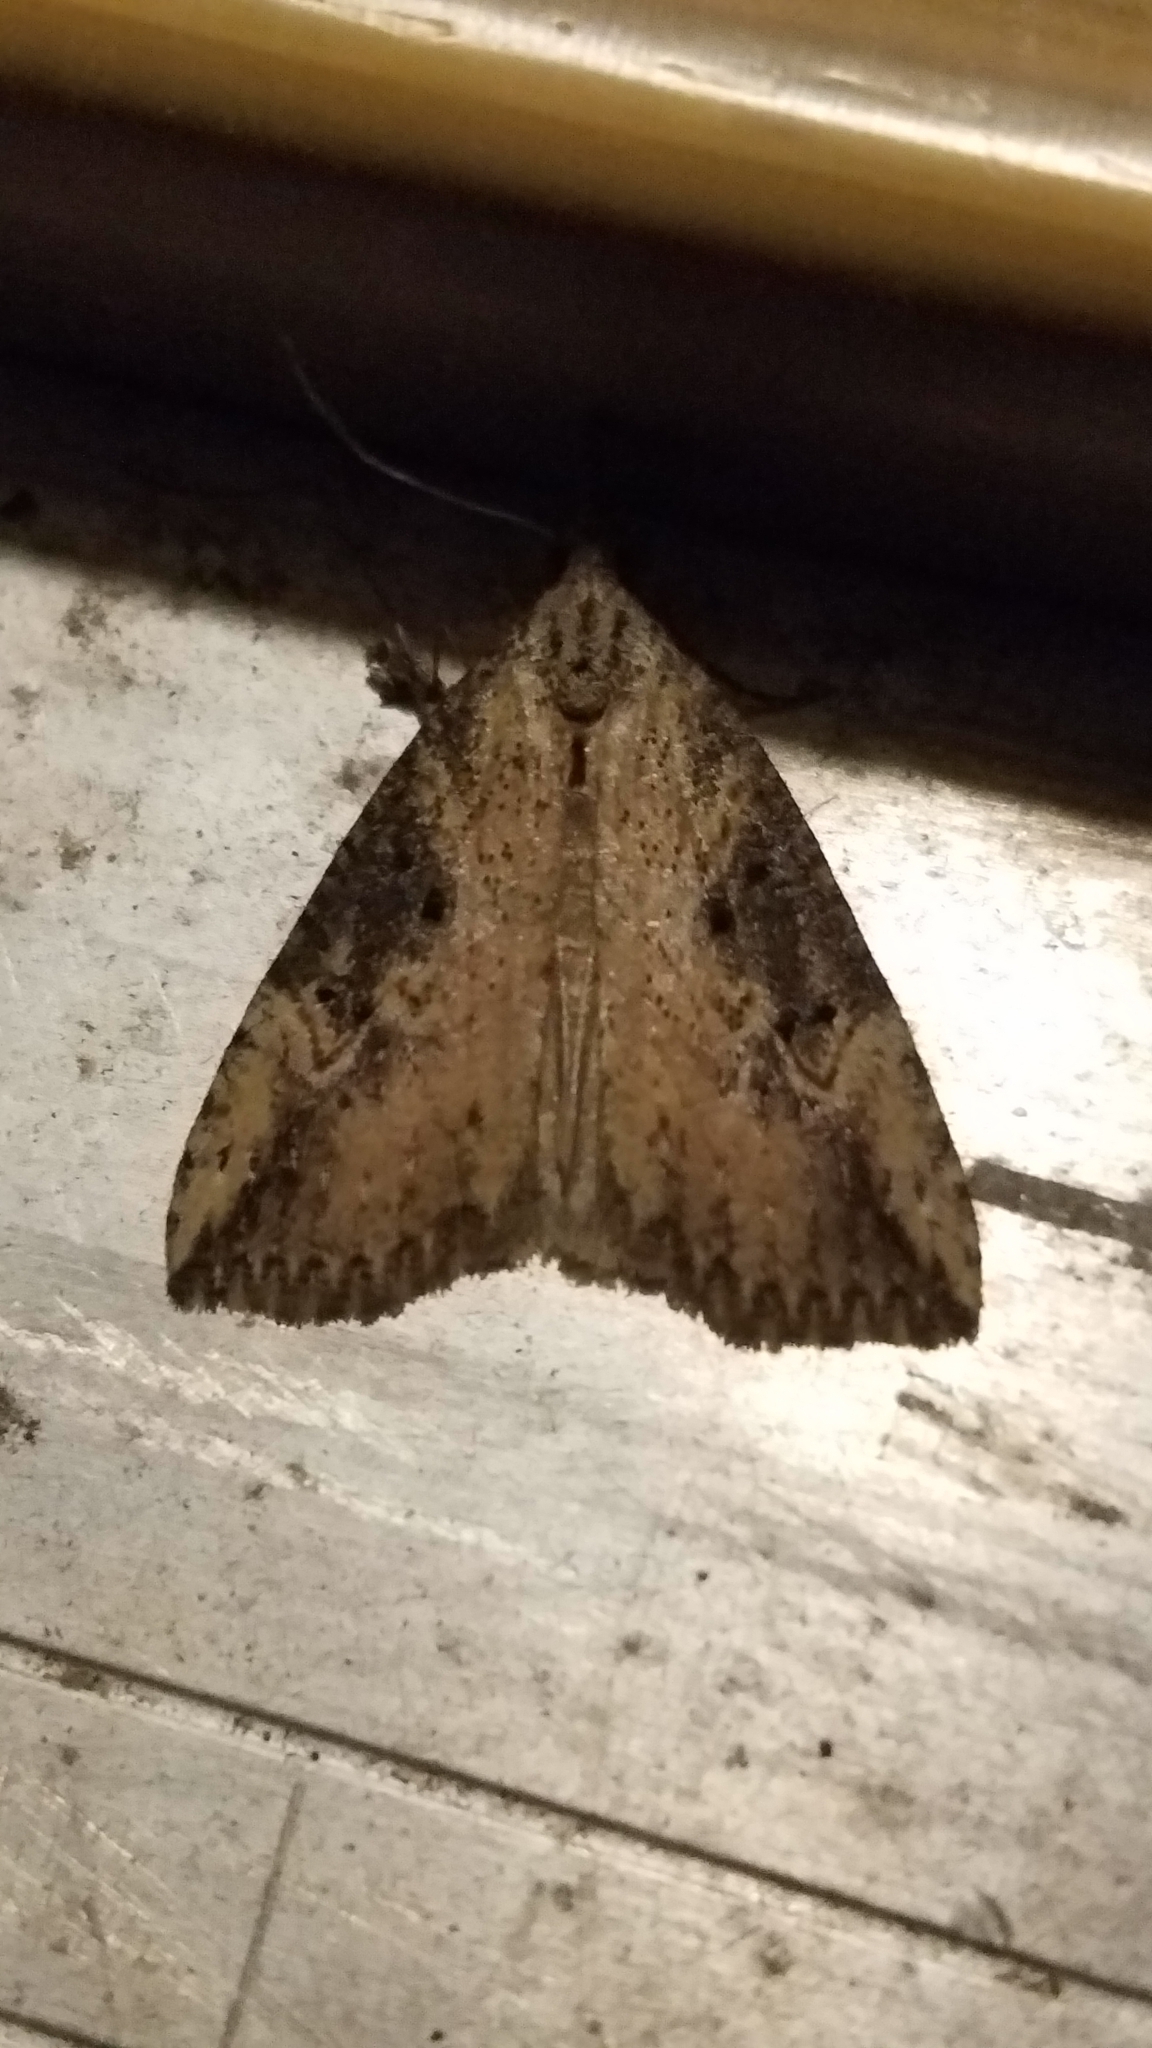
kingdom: Animalia
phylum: Arthropoda
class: Insecta
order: Lepidoptera
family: Erebidae
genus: Hypena
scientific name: Hypena humuli
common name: Hop vine snout
